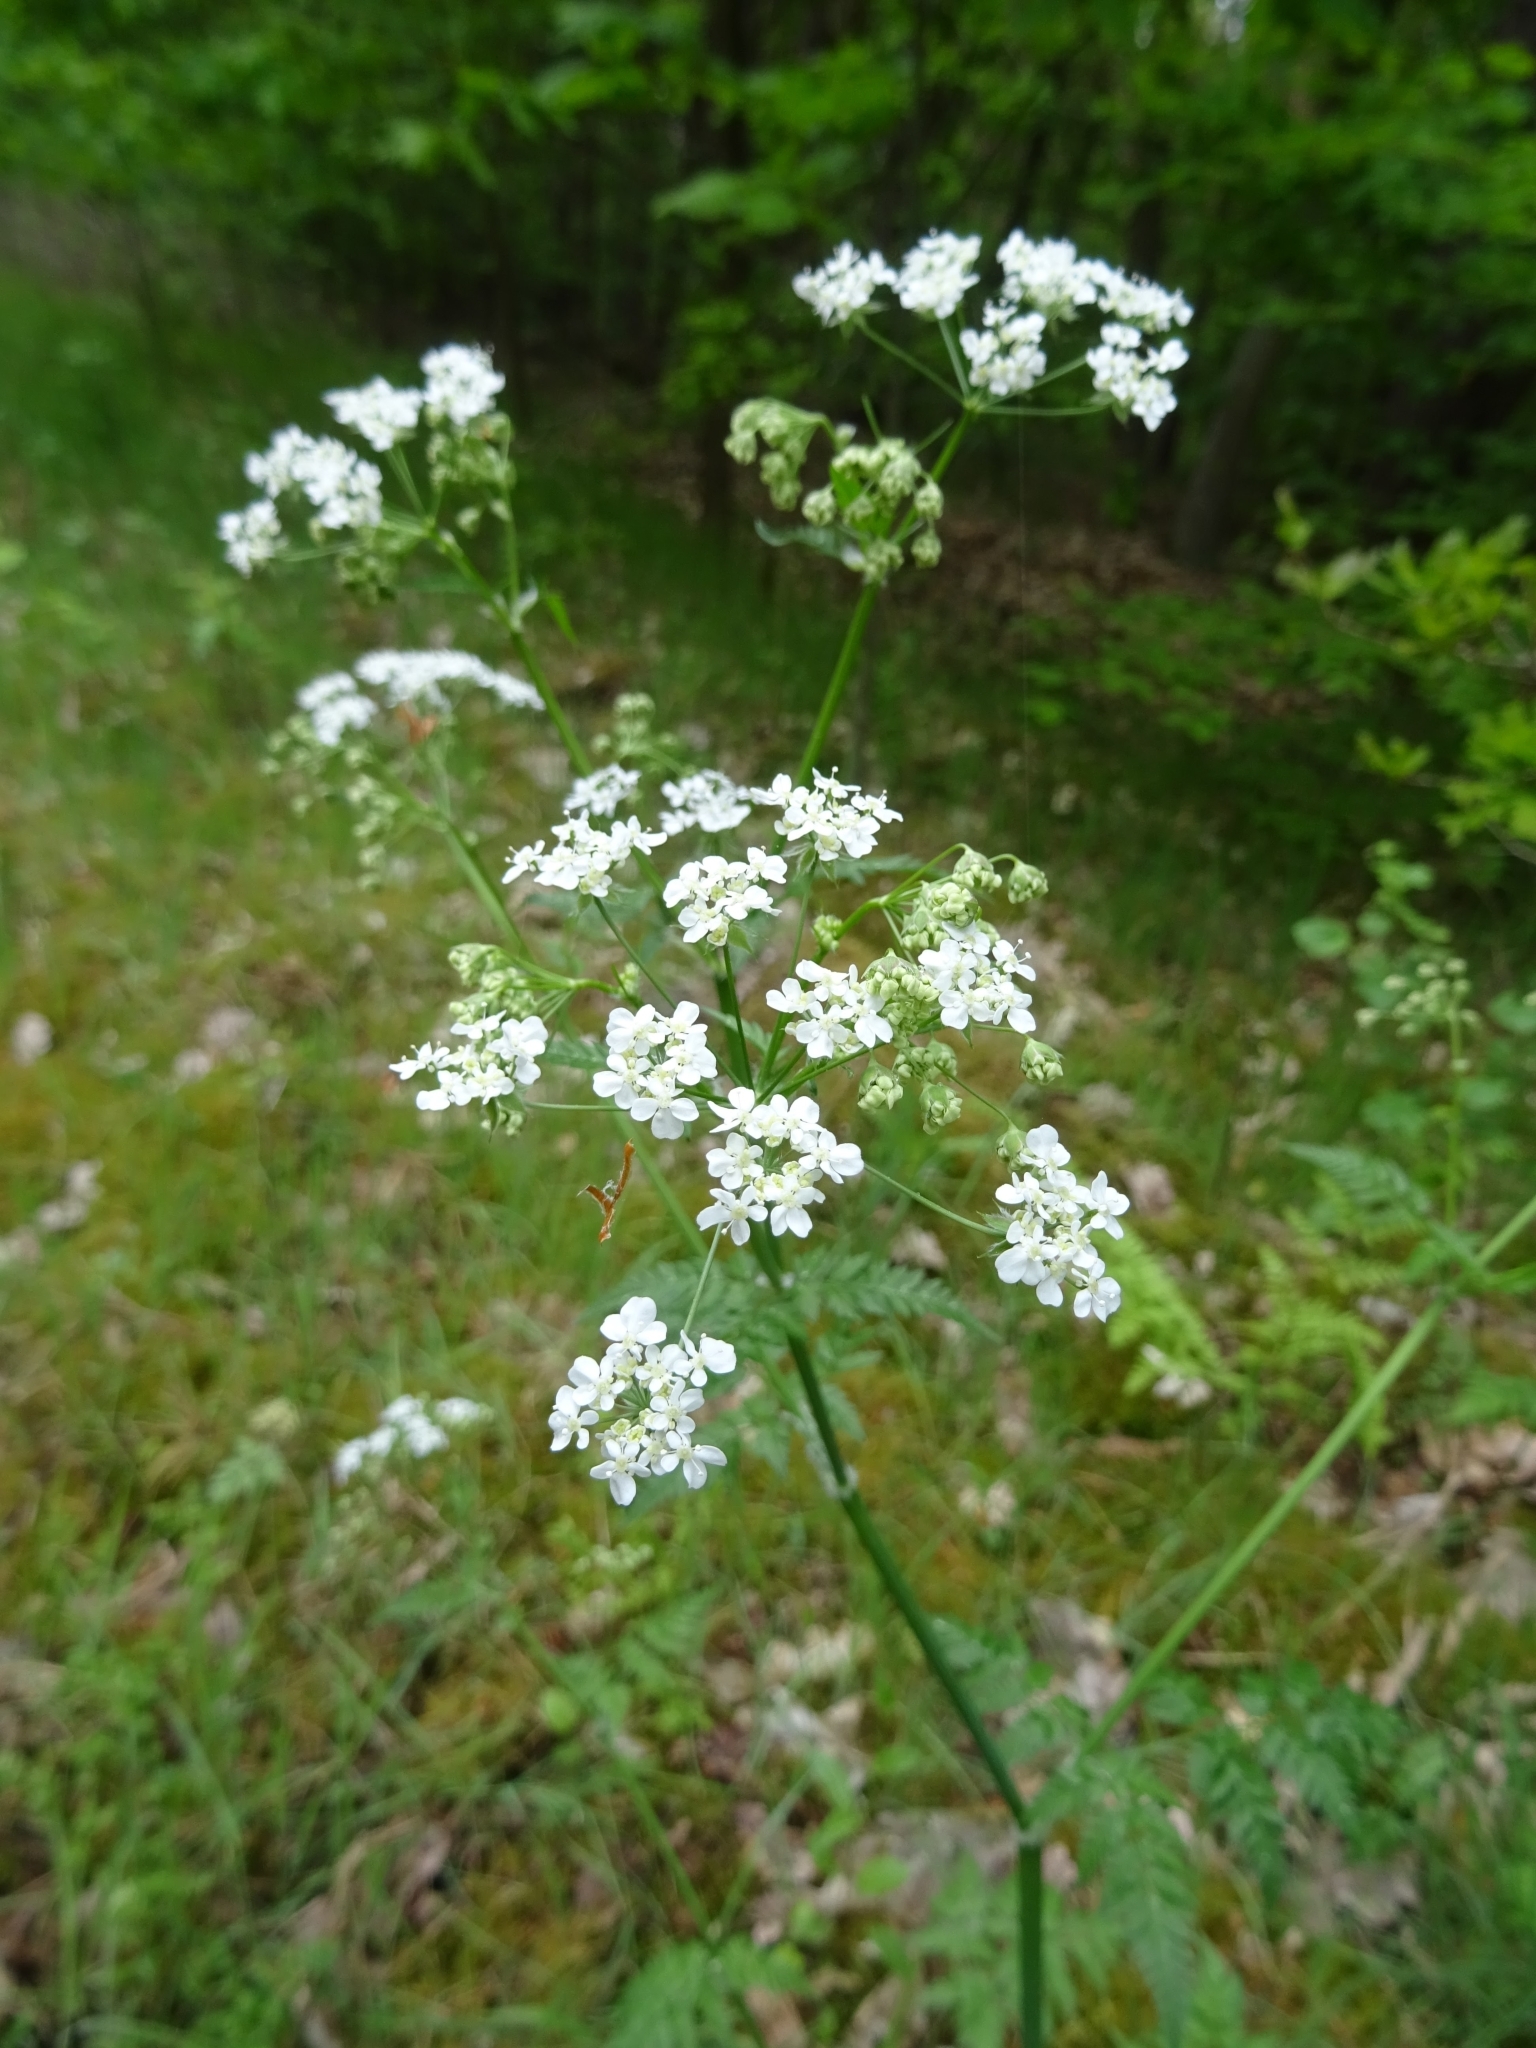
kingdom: Plantae
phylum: Tracheophyta
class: Magnoliopsida
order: Apiales
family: Apiaceae
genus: Anthriscus
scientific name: Anthriscus sylvestris
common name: Cow parsley
